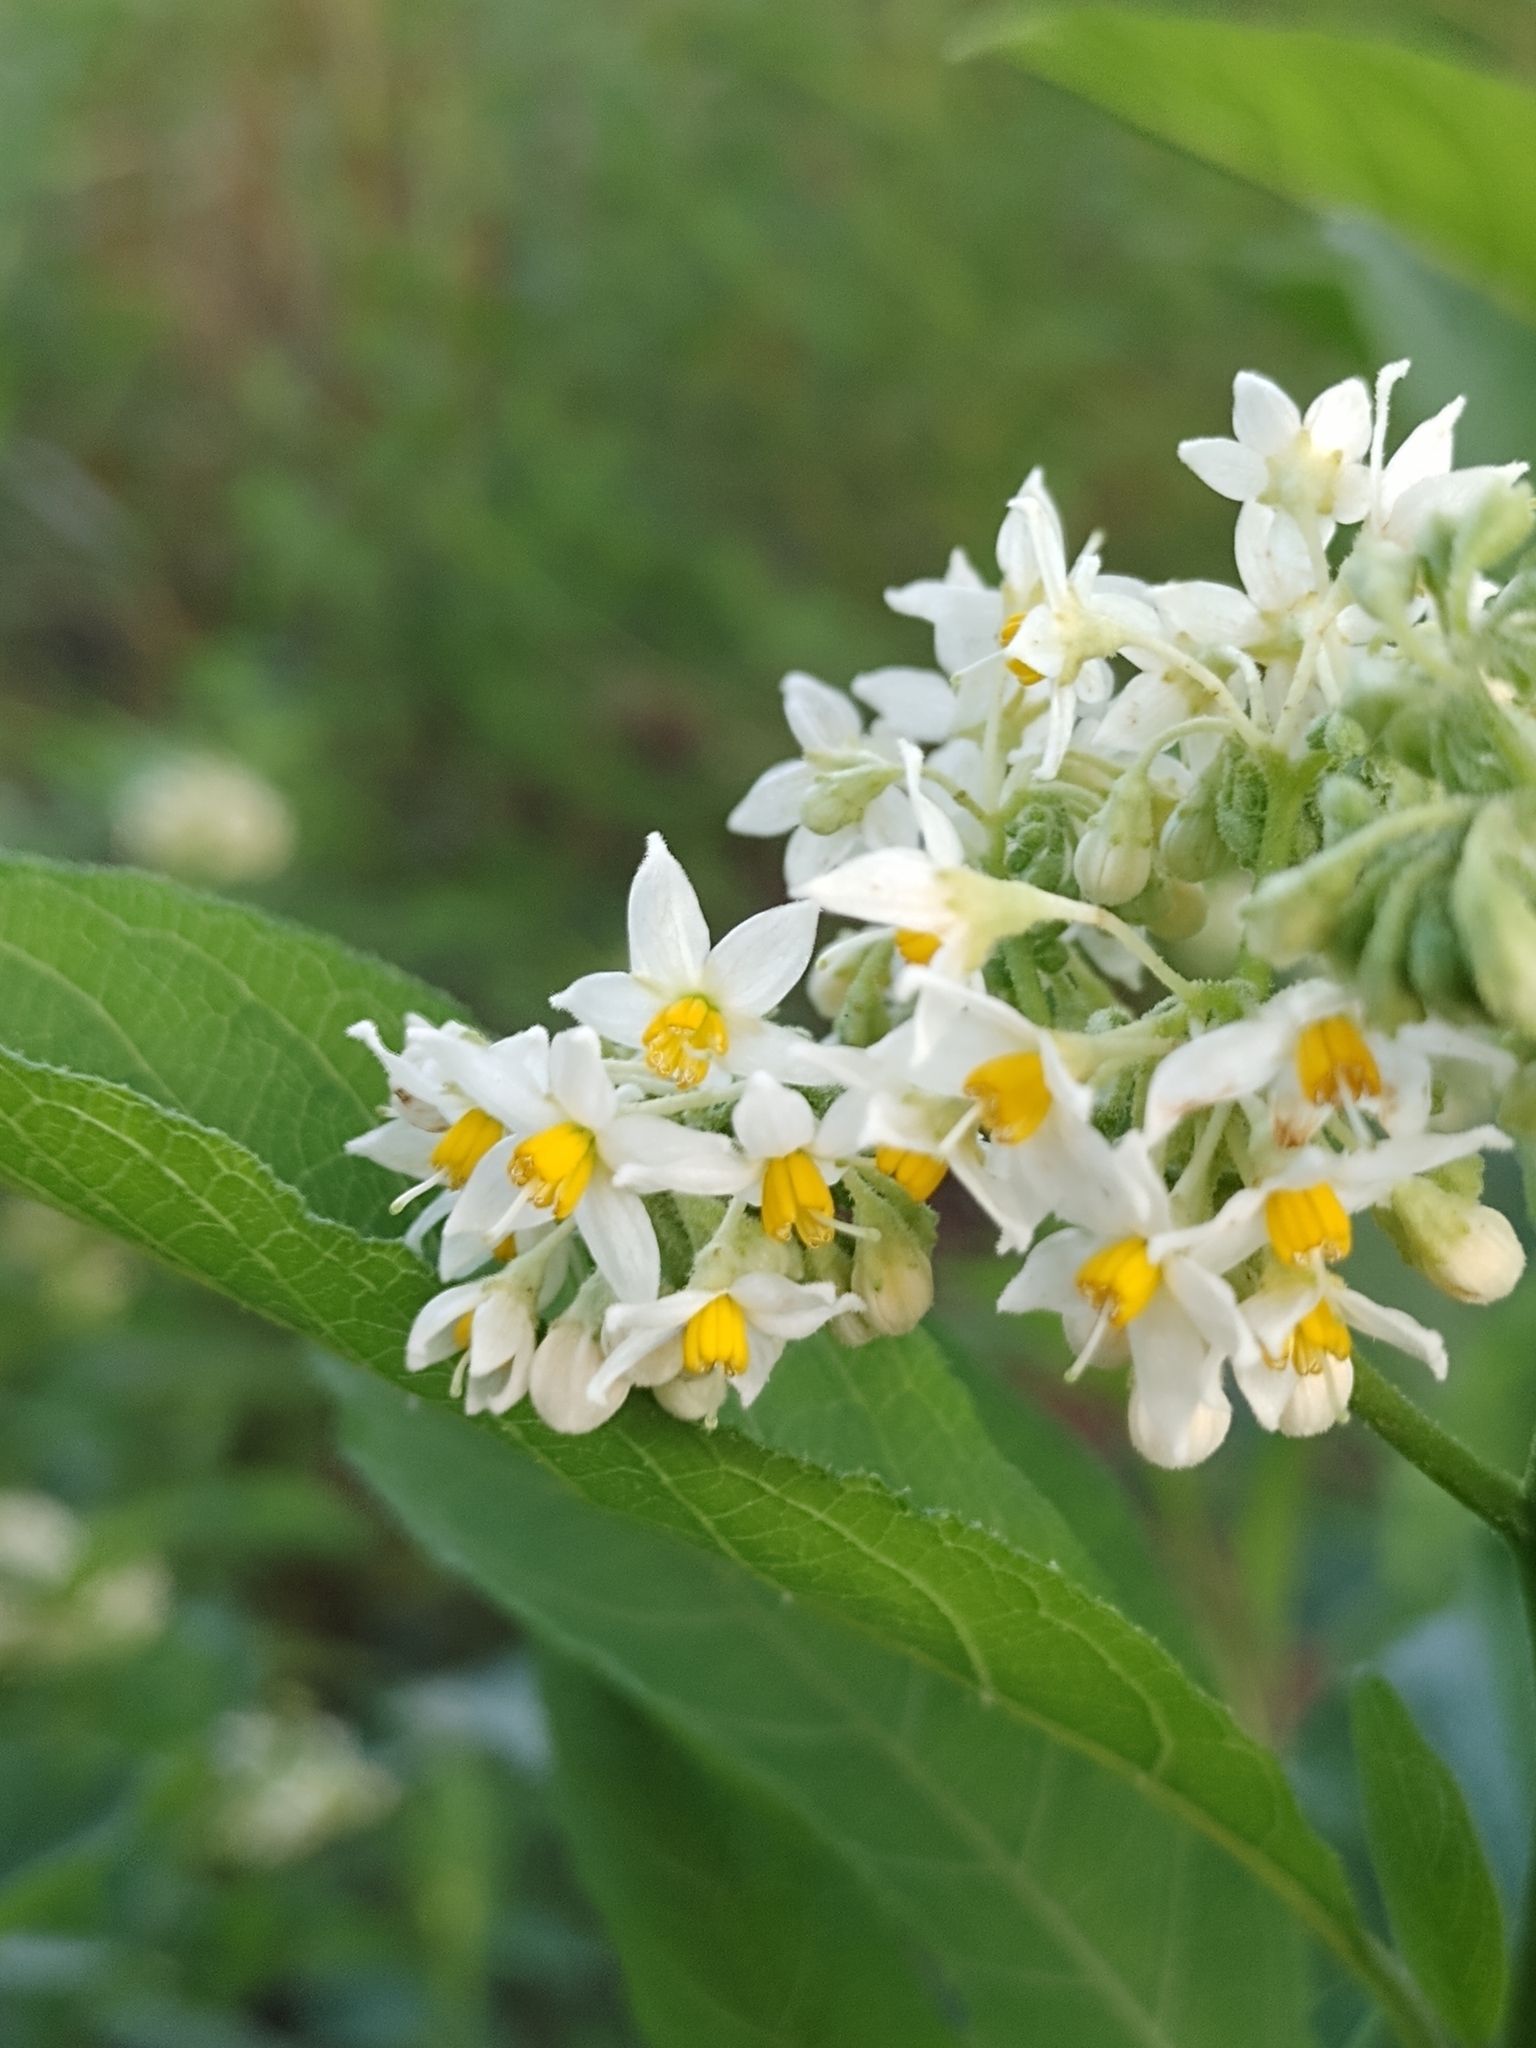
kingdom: Plantae
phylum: Tracheophyta
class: Magnoliopsida
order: Solanales
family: Solanaceae
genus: Solanum
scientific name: Solanum argentinum
